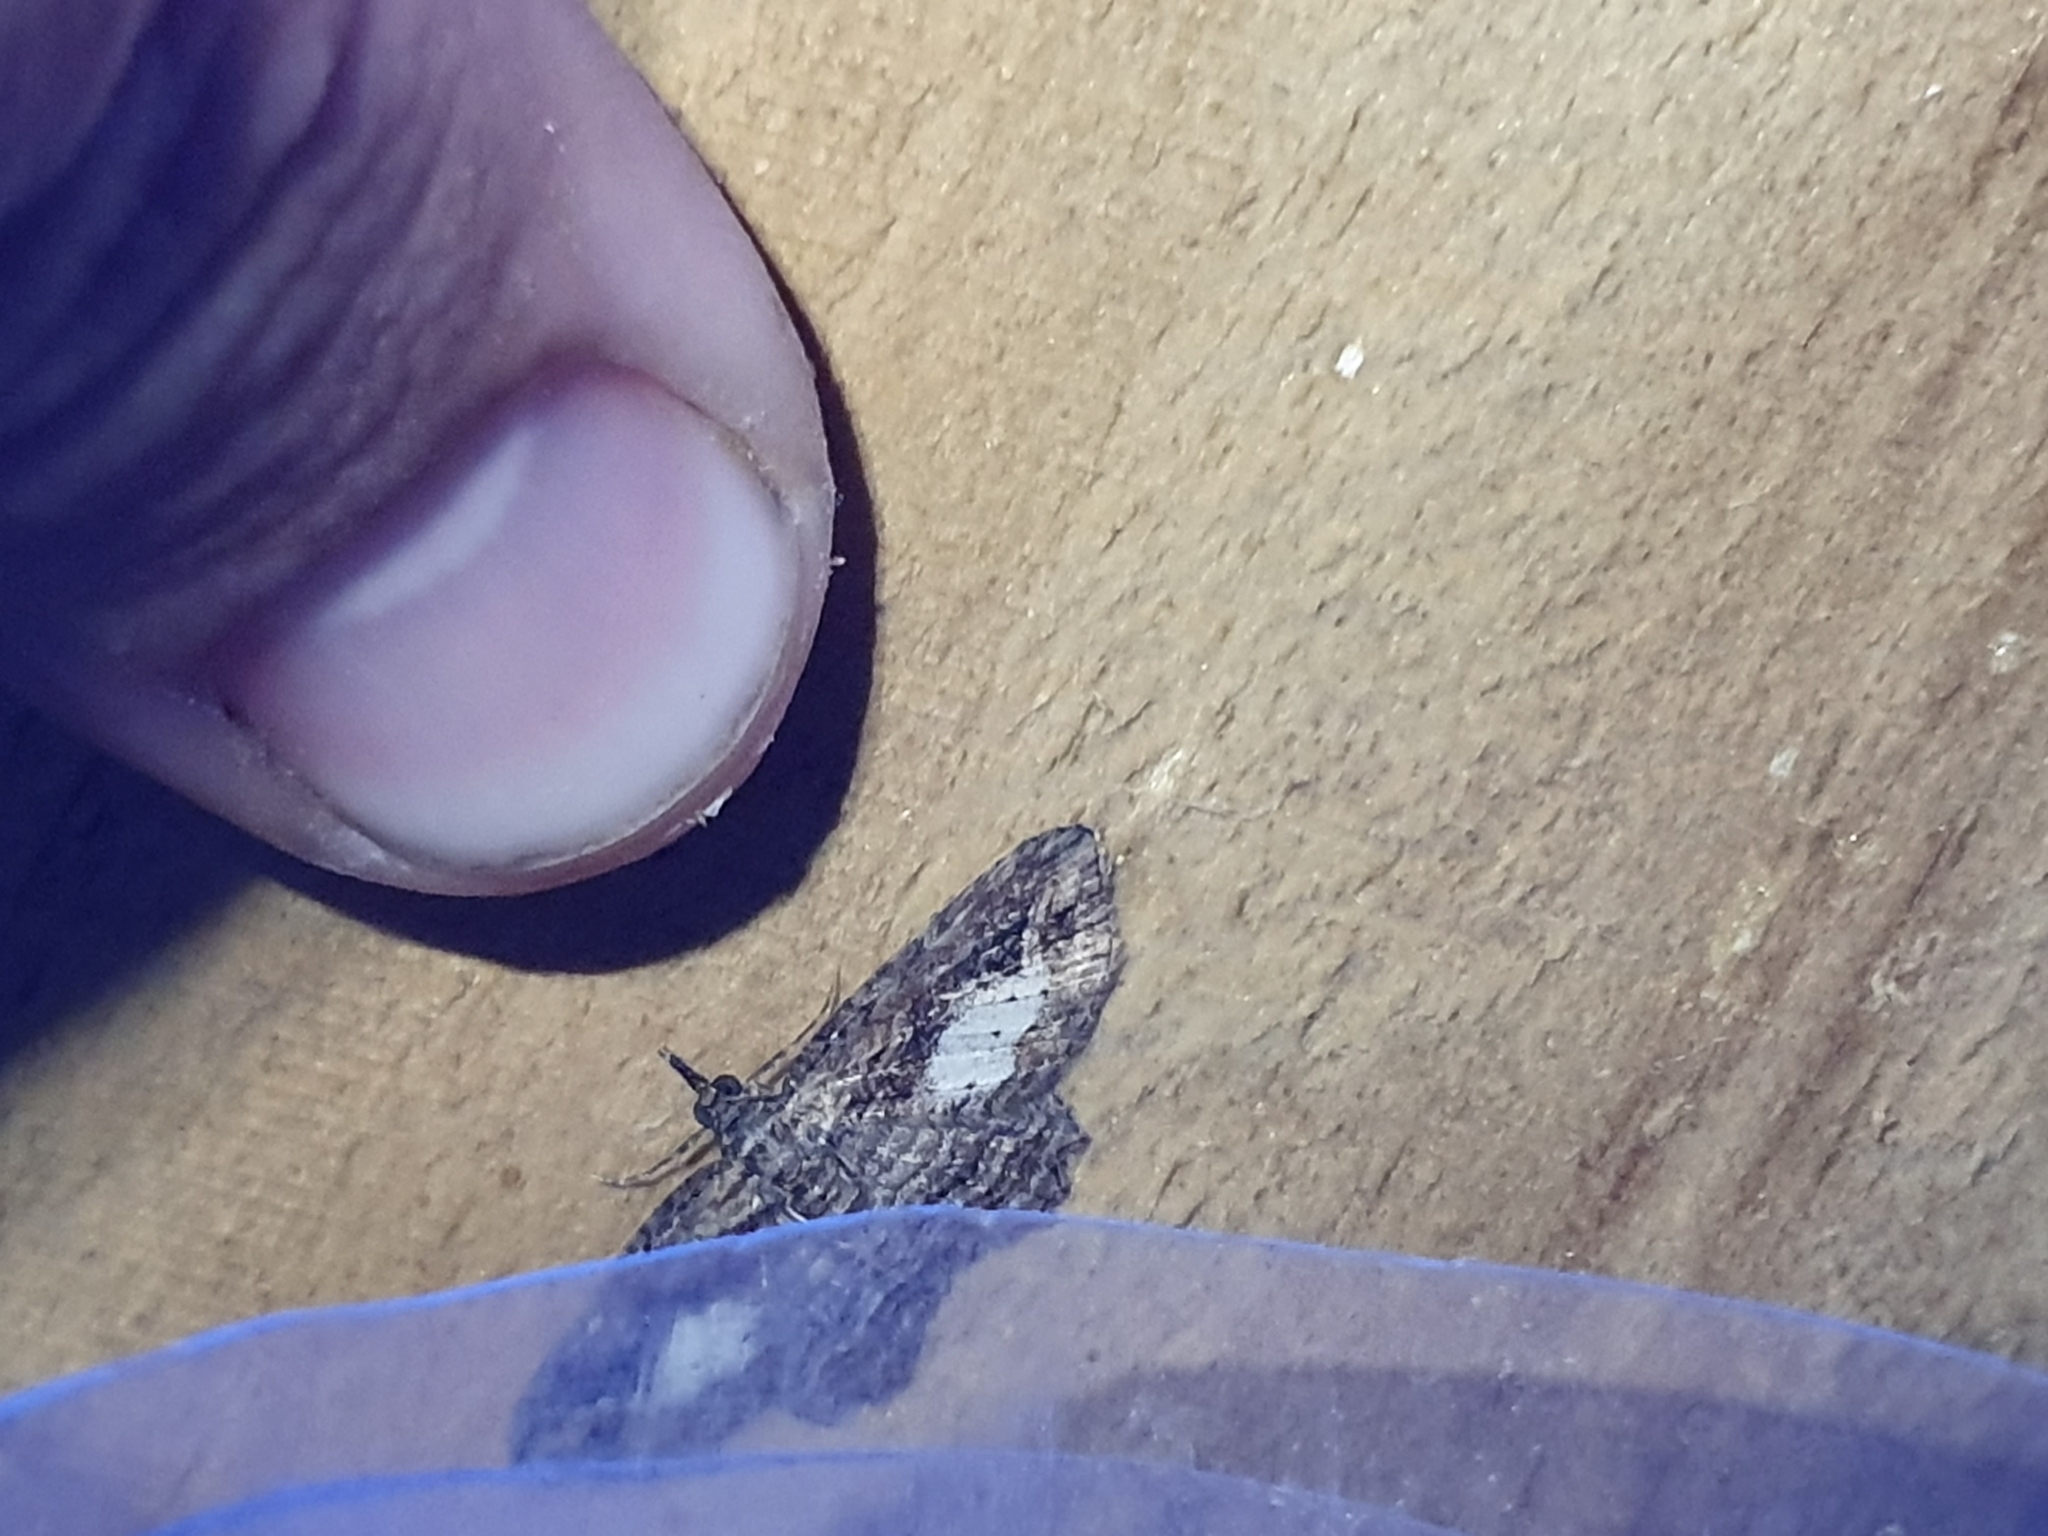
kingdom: Animalia
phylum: Arthropoda
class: Insecta
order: Lepidoptera
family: Geometridae
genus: Chloroclystis
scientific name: Chloroclystis filata
